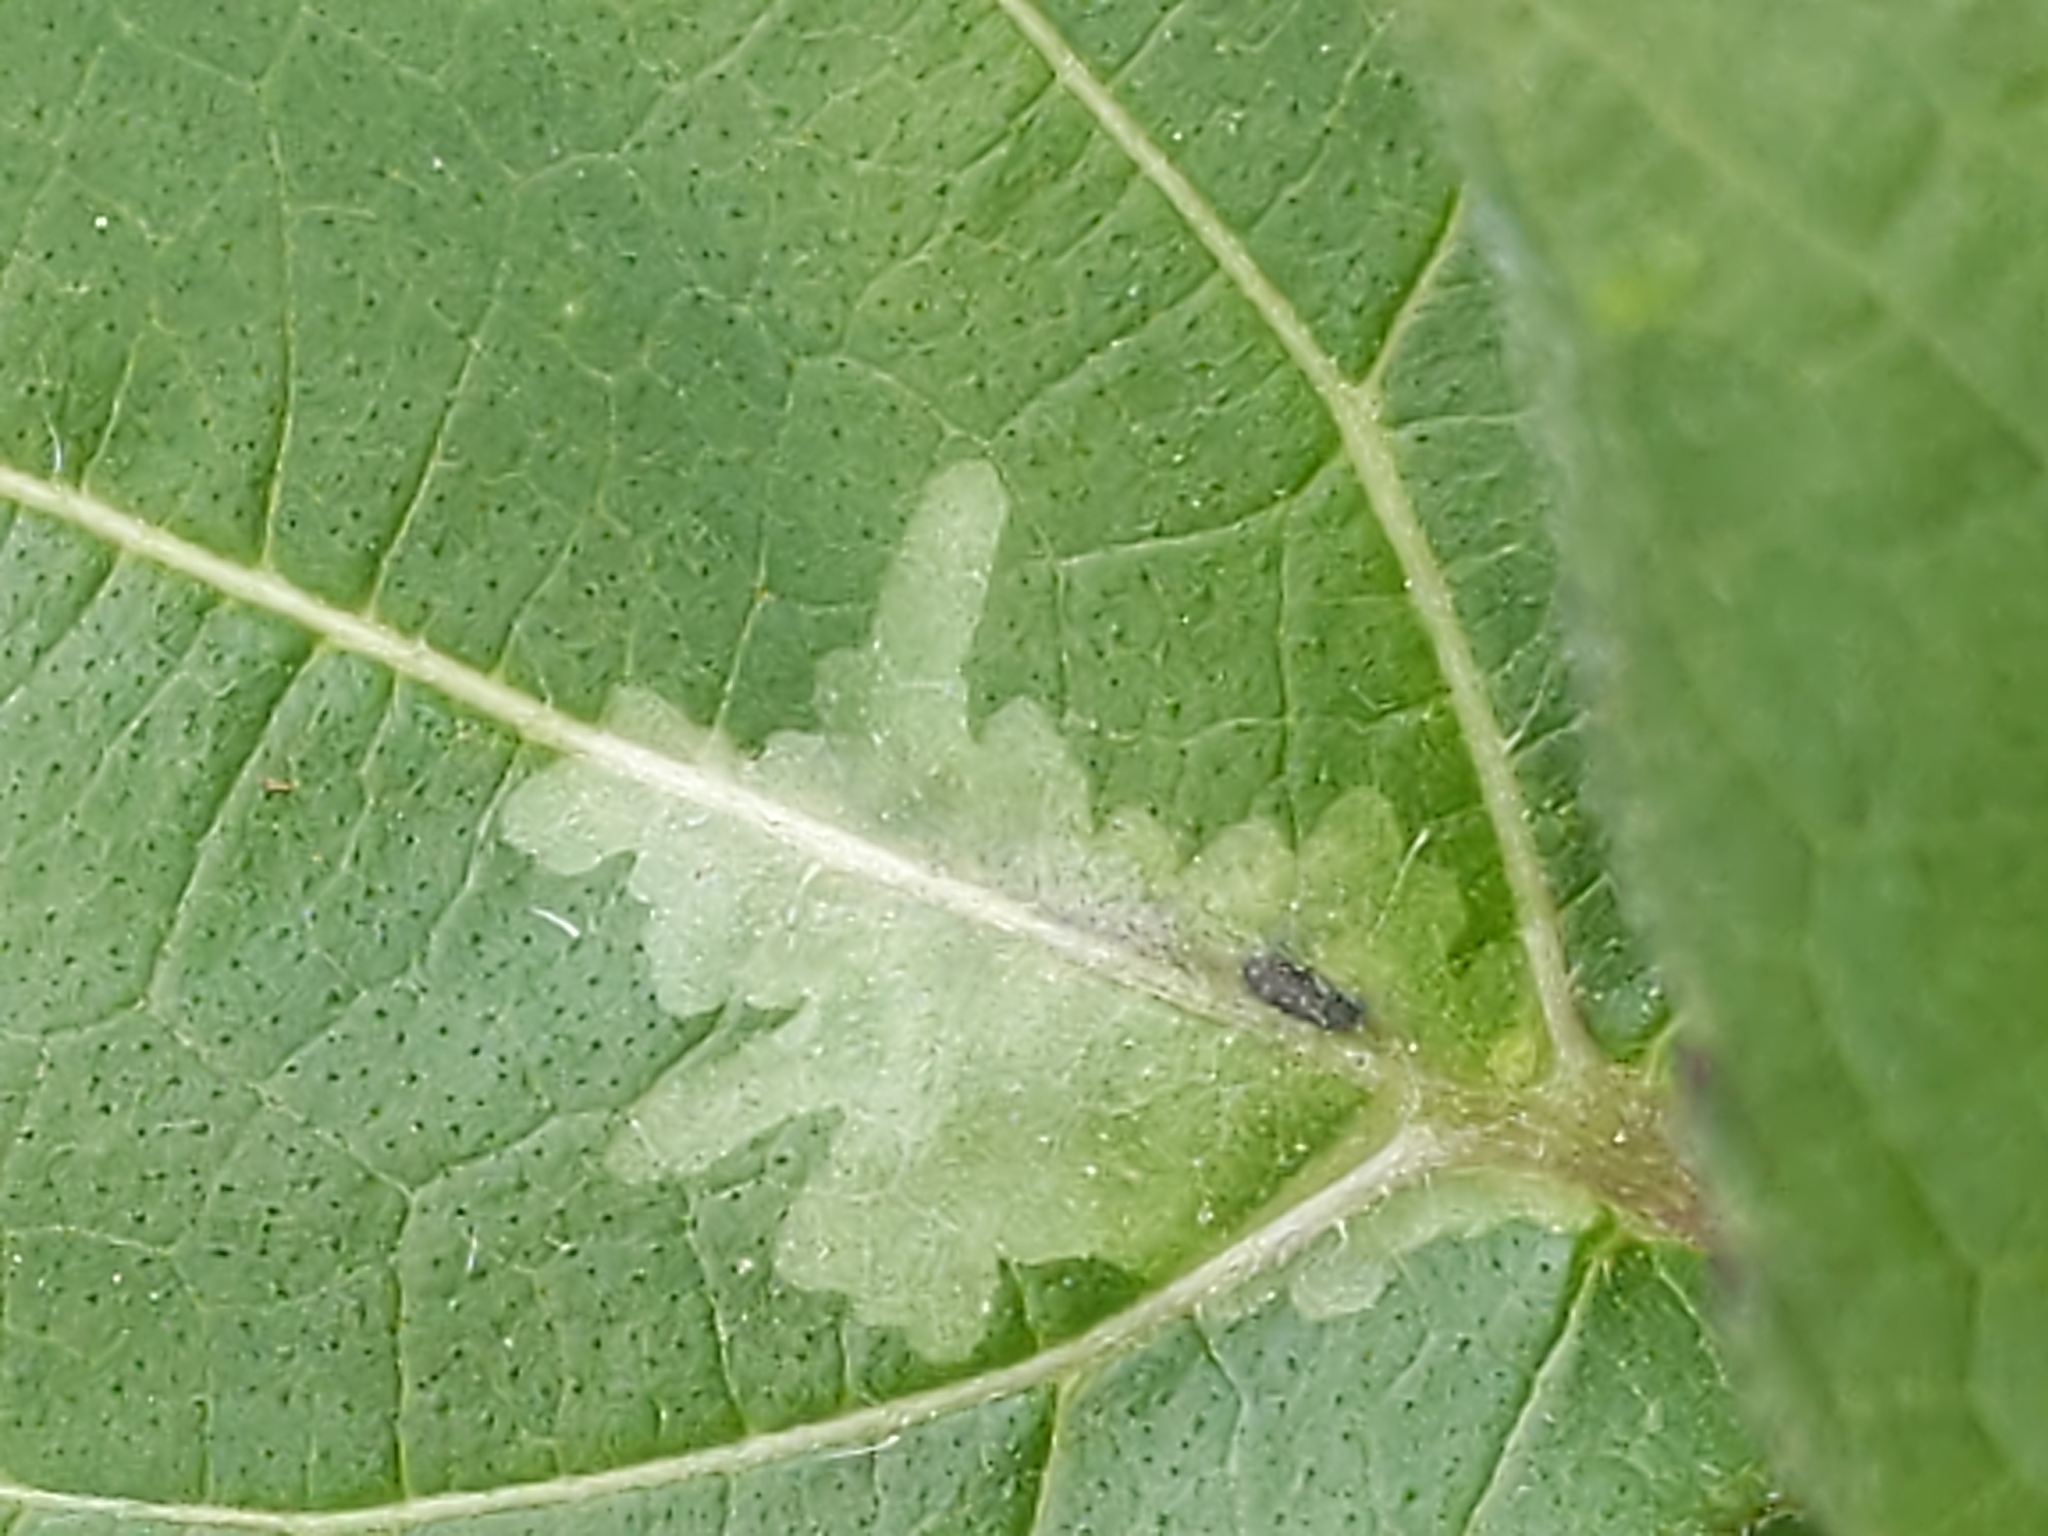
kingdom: Animalia
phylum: Arthropoda
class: Insecta
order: Diptera
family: Agromyzidae
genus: Calycomyza
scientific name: Calycomyza platyptera
